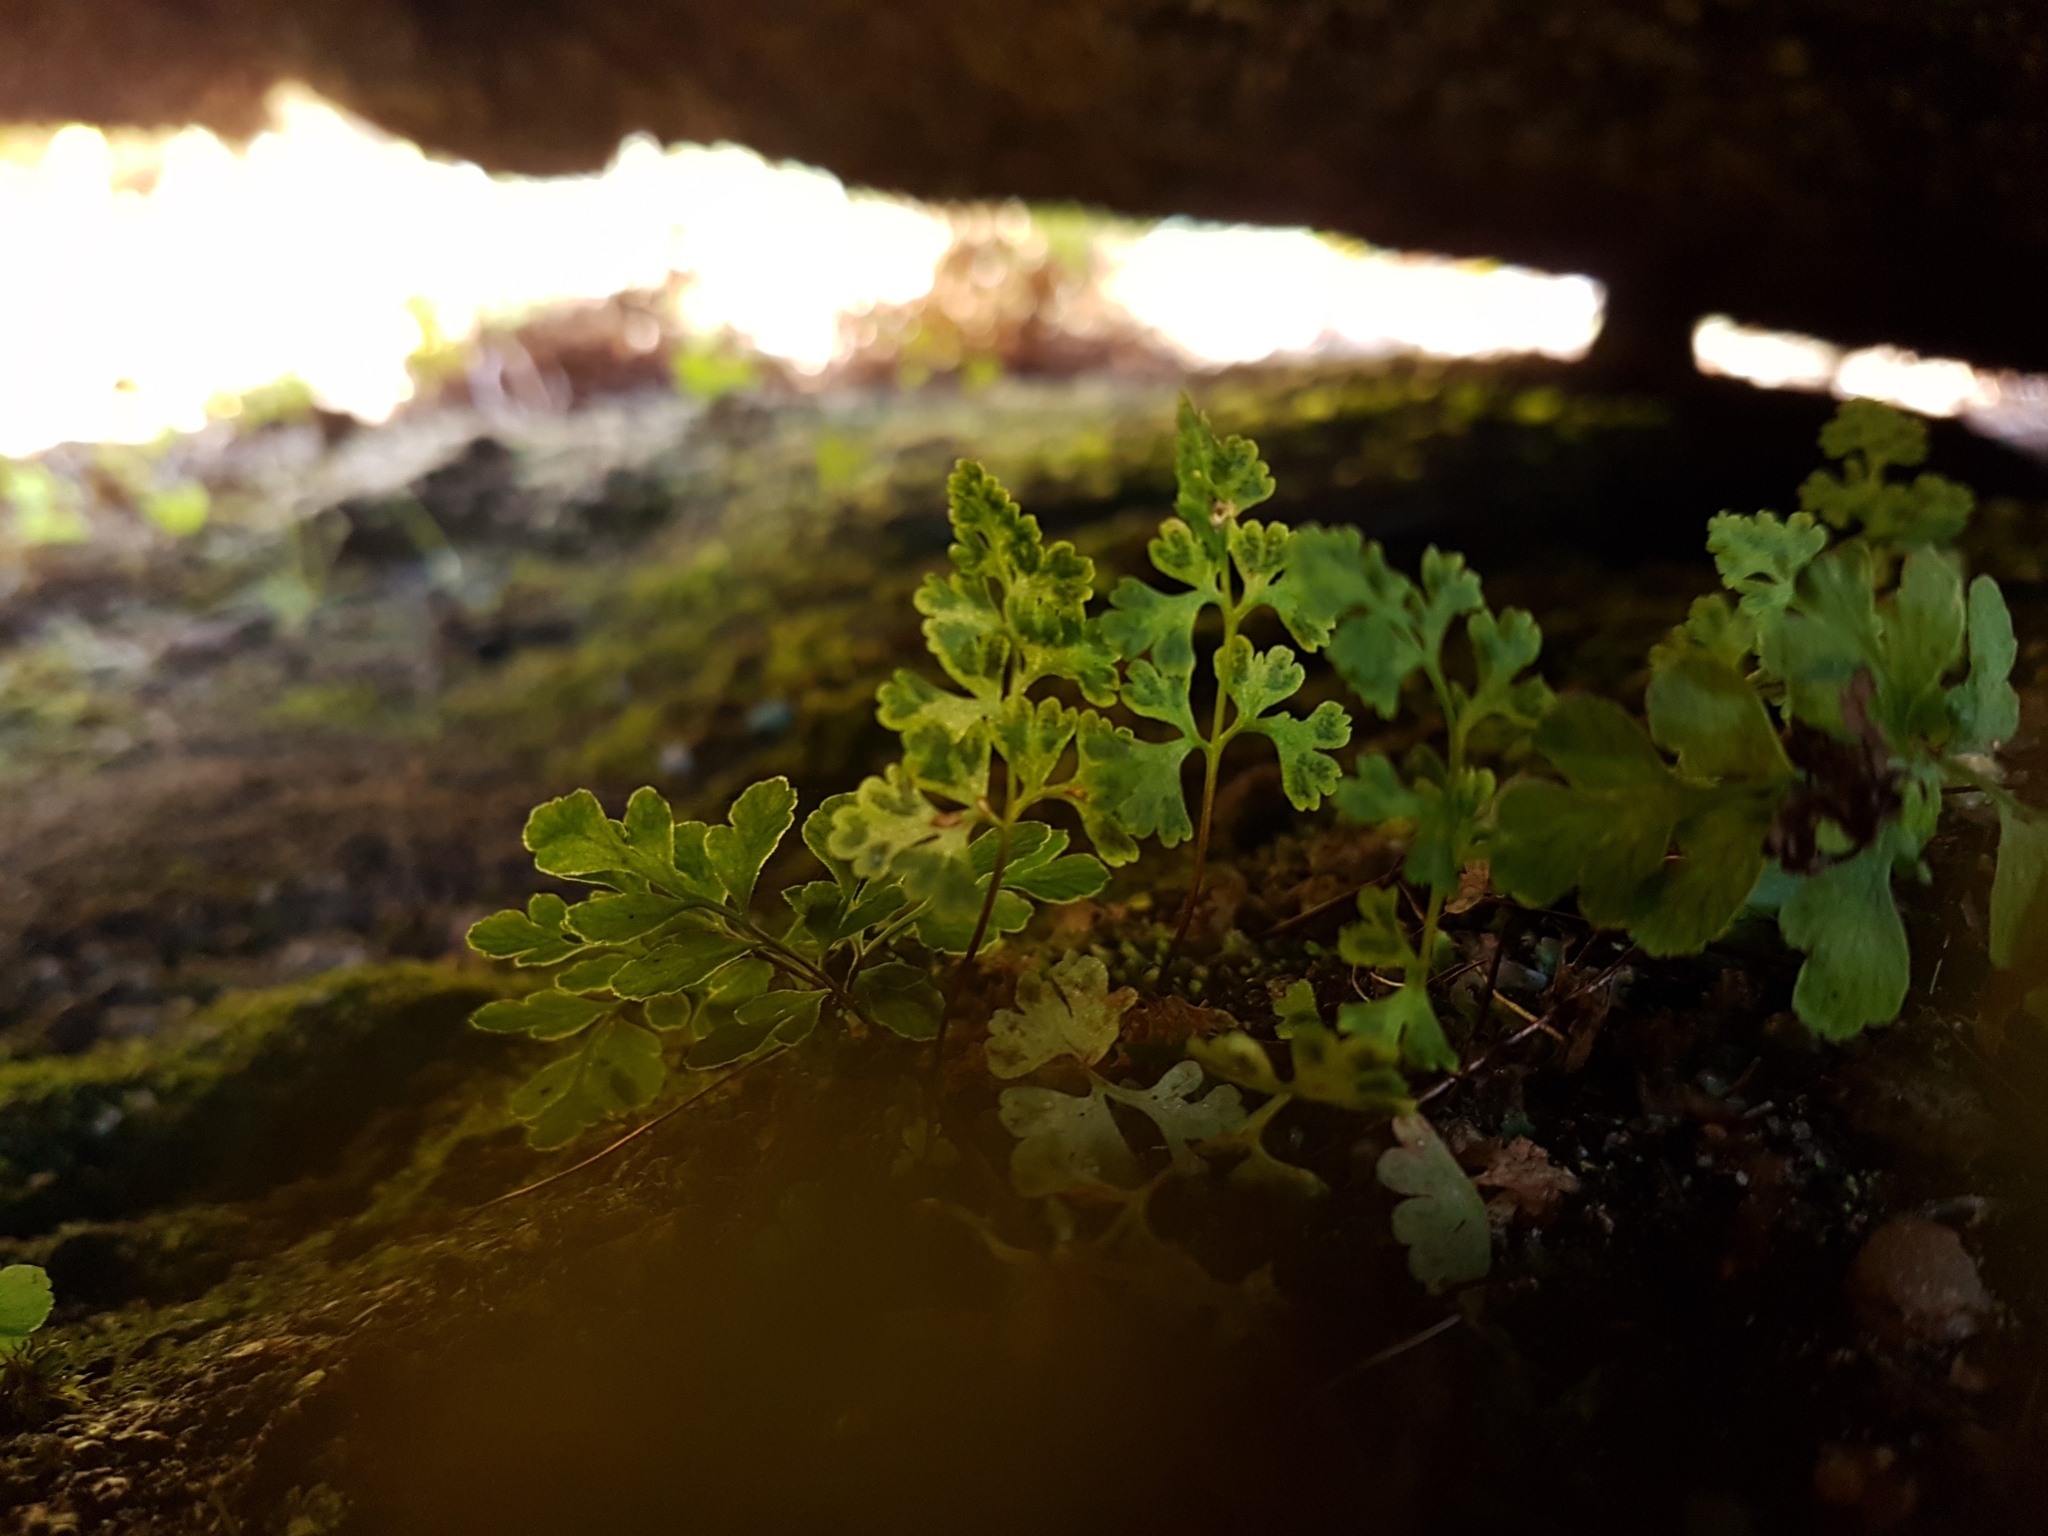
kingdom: Plantae
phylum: Tracheophyta
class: Polypodiopsida
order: Polypodiales
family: Pteridaceae
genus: Anogramma
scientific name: Anogramma leptophylla
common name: Jersey fern
